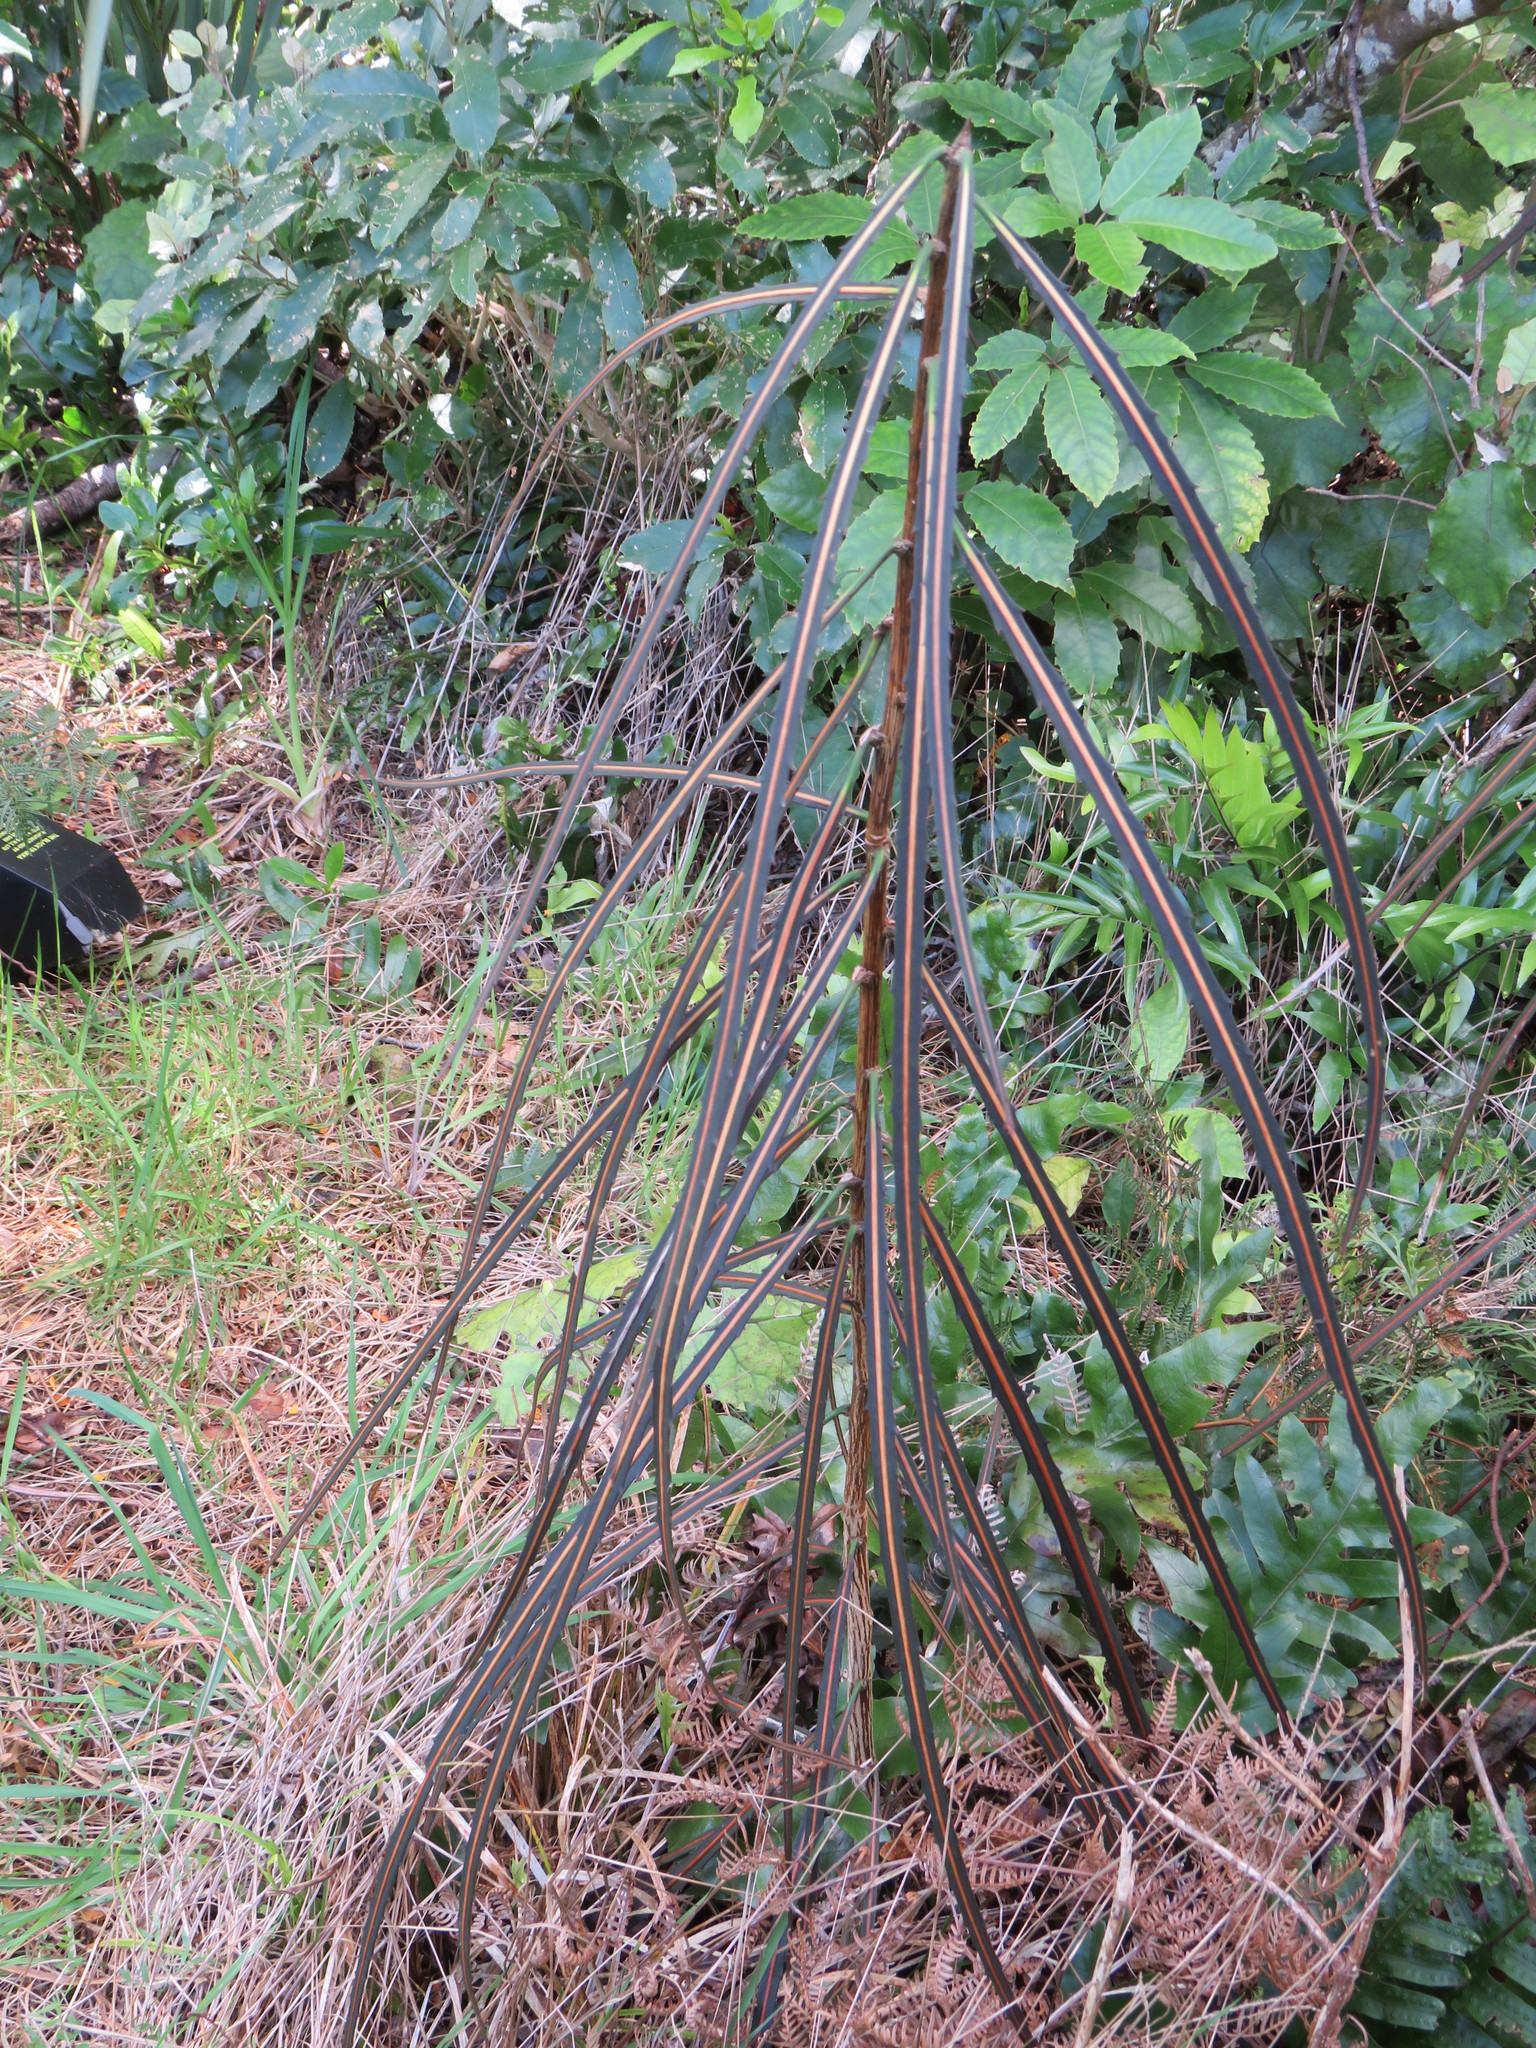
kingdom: Plantae
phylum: Tracheophyta
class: Magnoliopsida
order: Apiales
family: Araliaceae
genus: Pseudopanax
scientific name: Pseudopanax crassifolius
